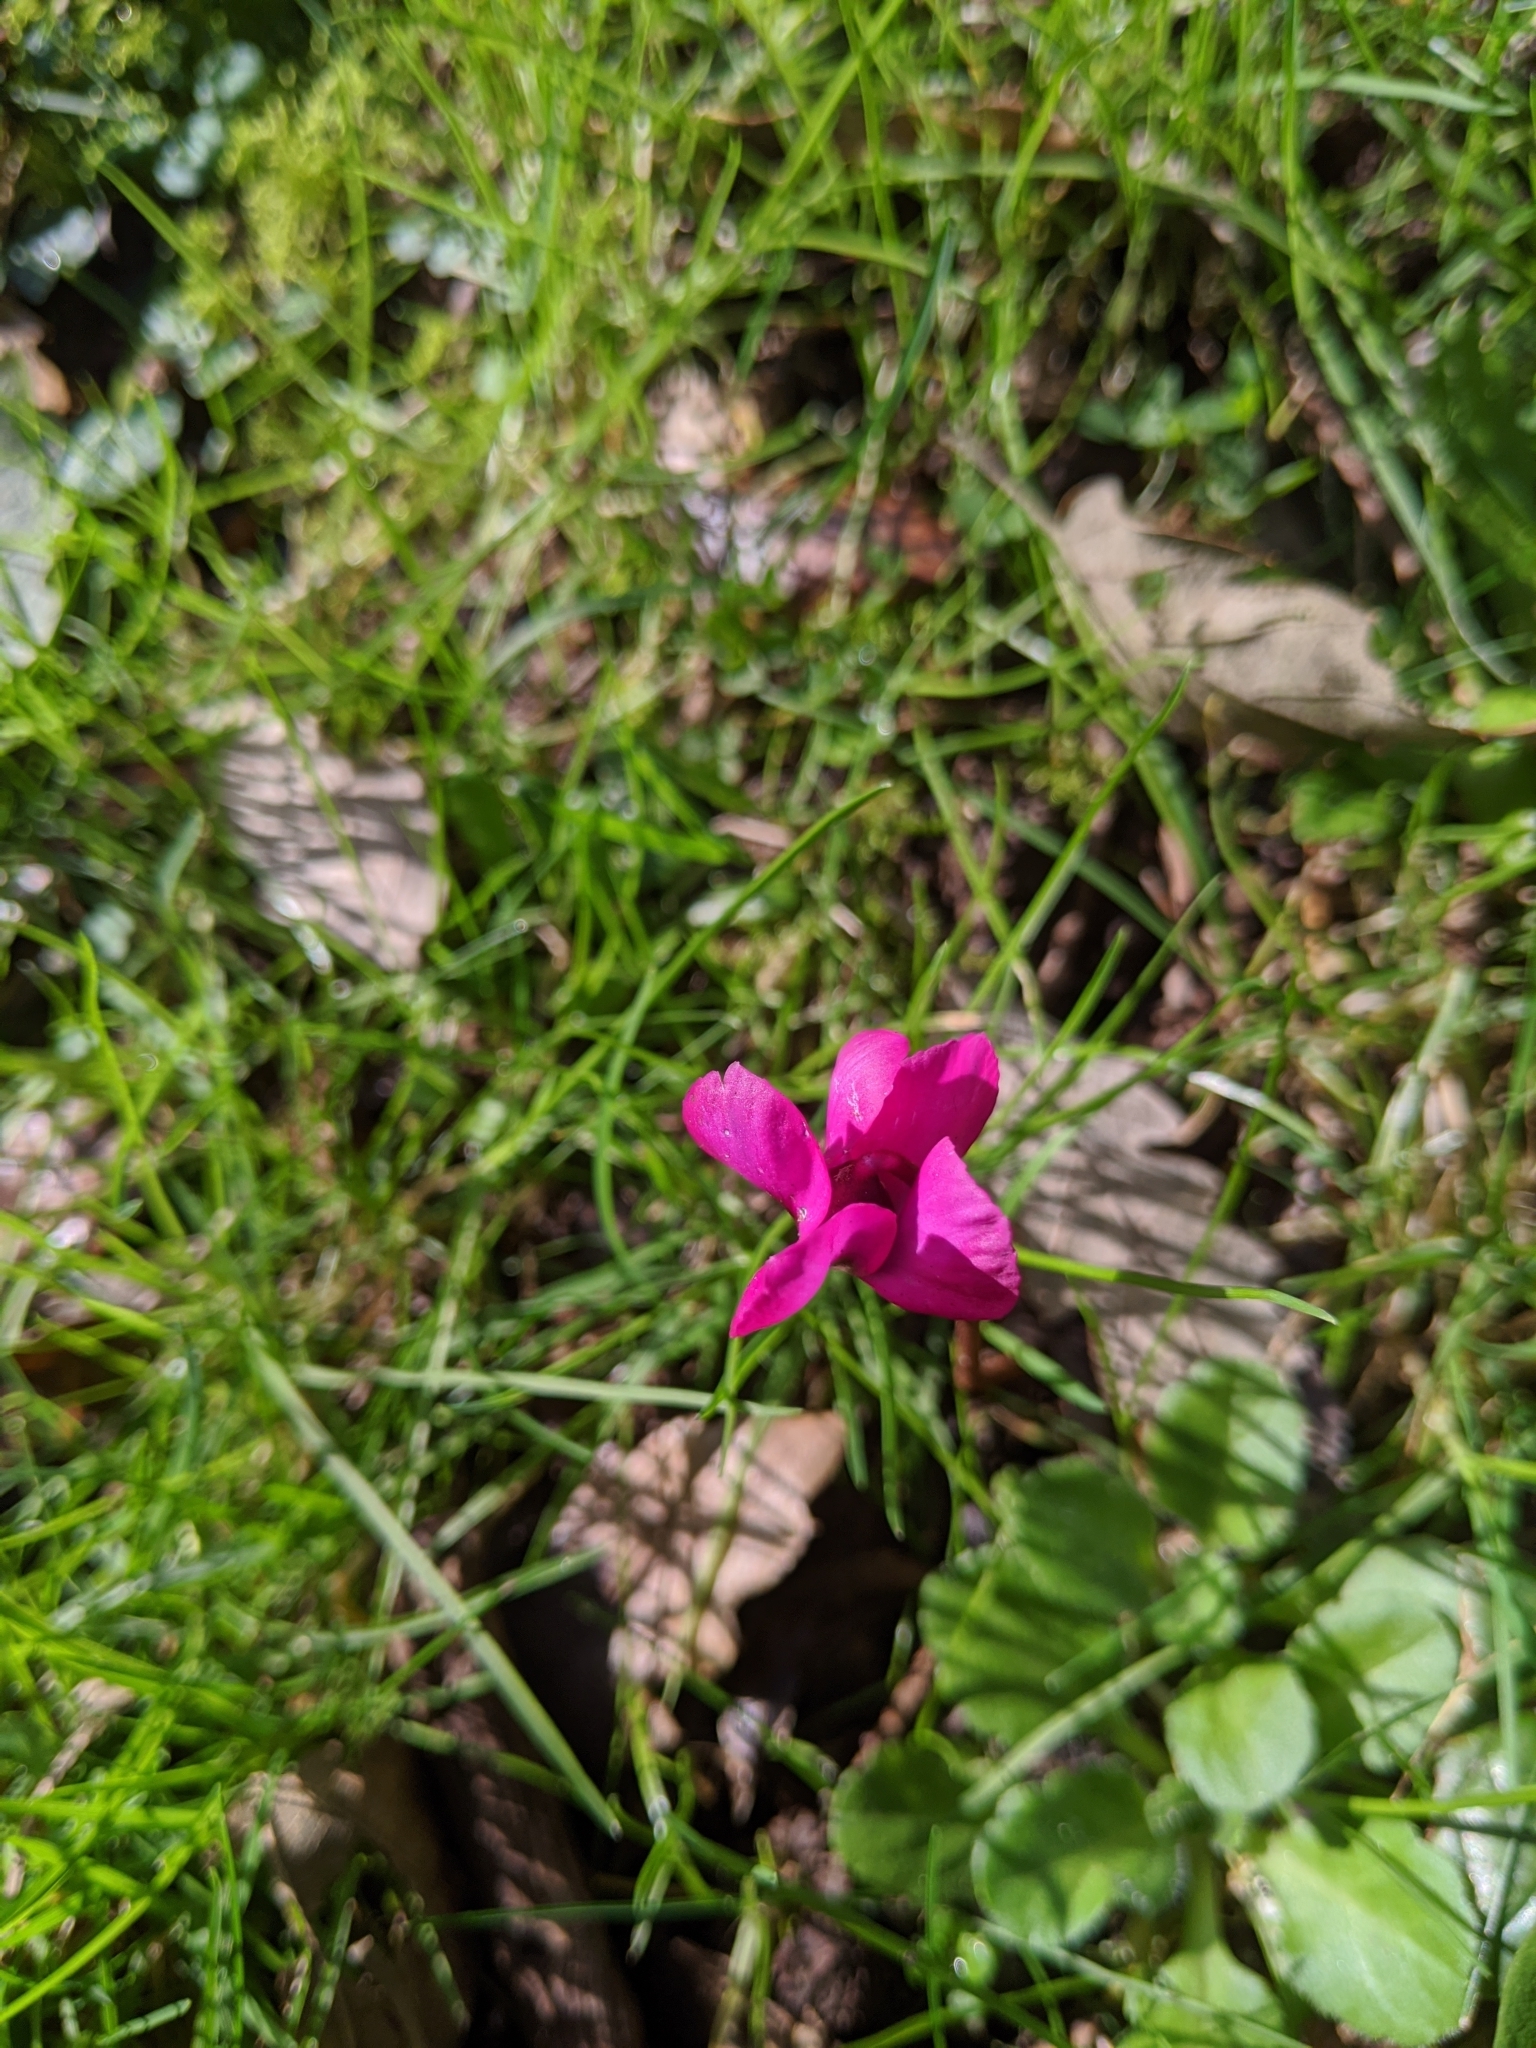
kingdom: Plantae
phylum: Tracheophyta
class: Magnoliopsida
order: Ericales
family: Primulaceae
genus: Cyclamen
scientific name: Cyclamen coum
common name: Eastern sowbread
